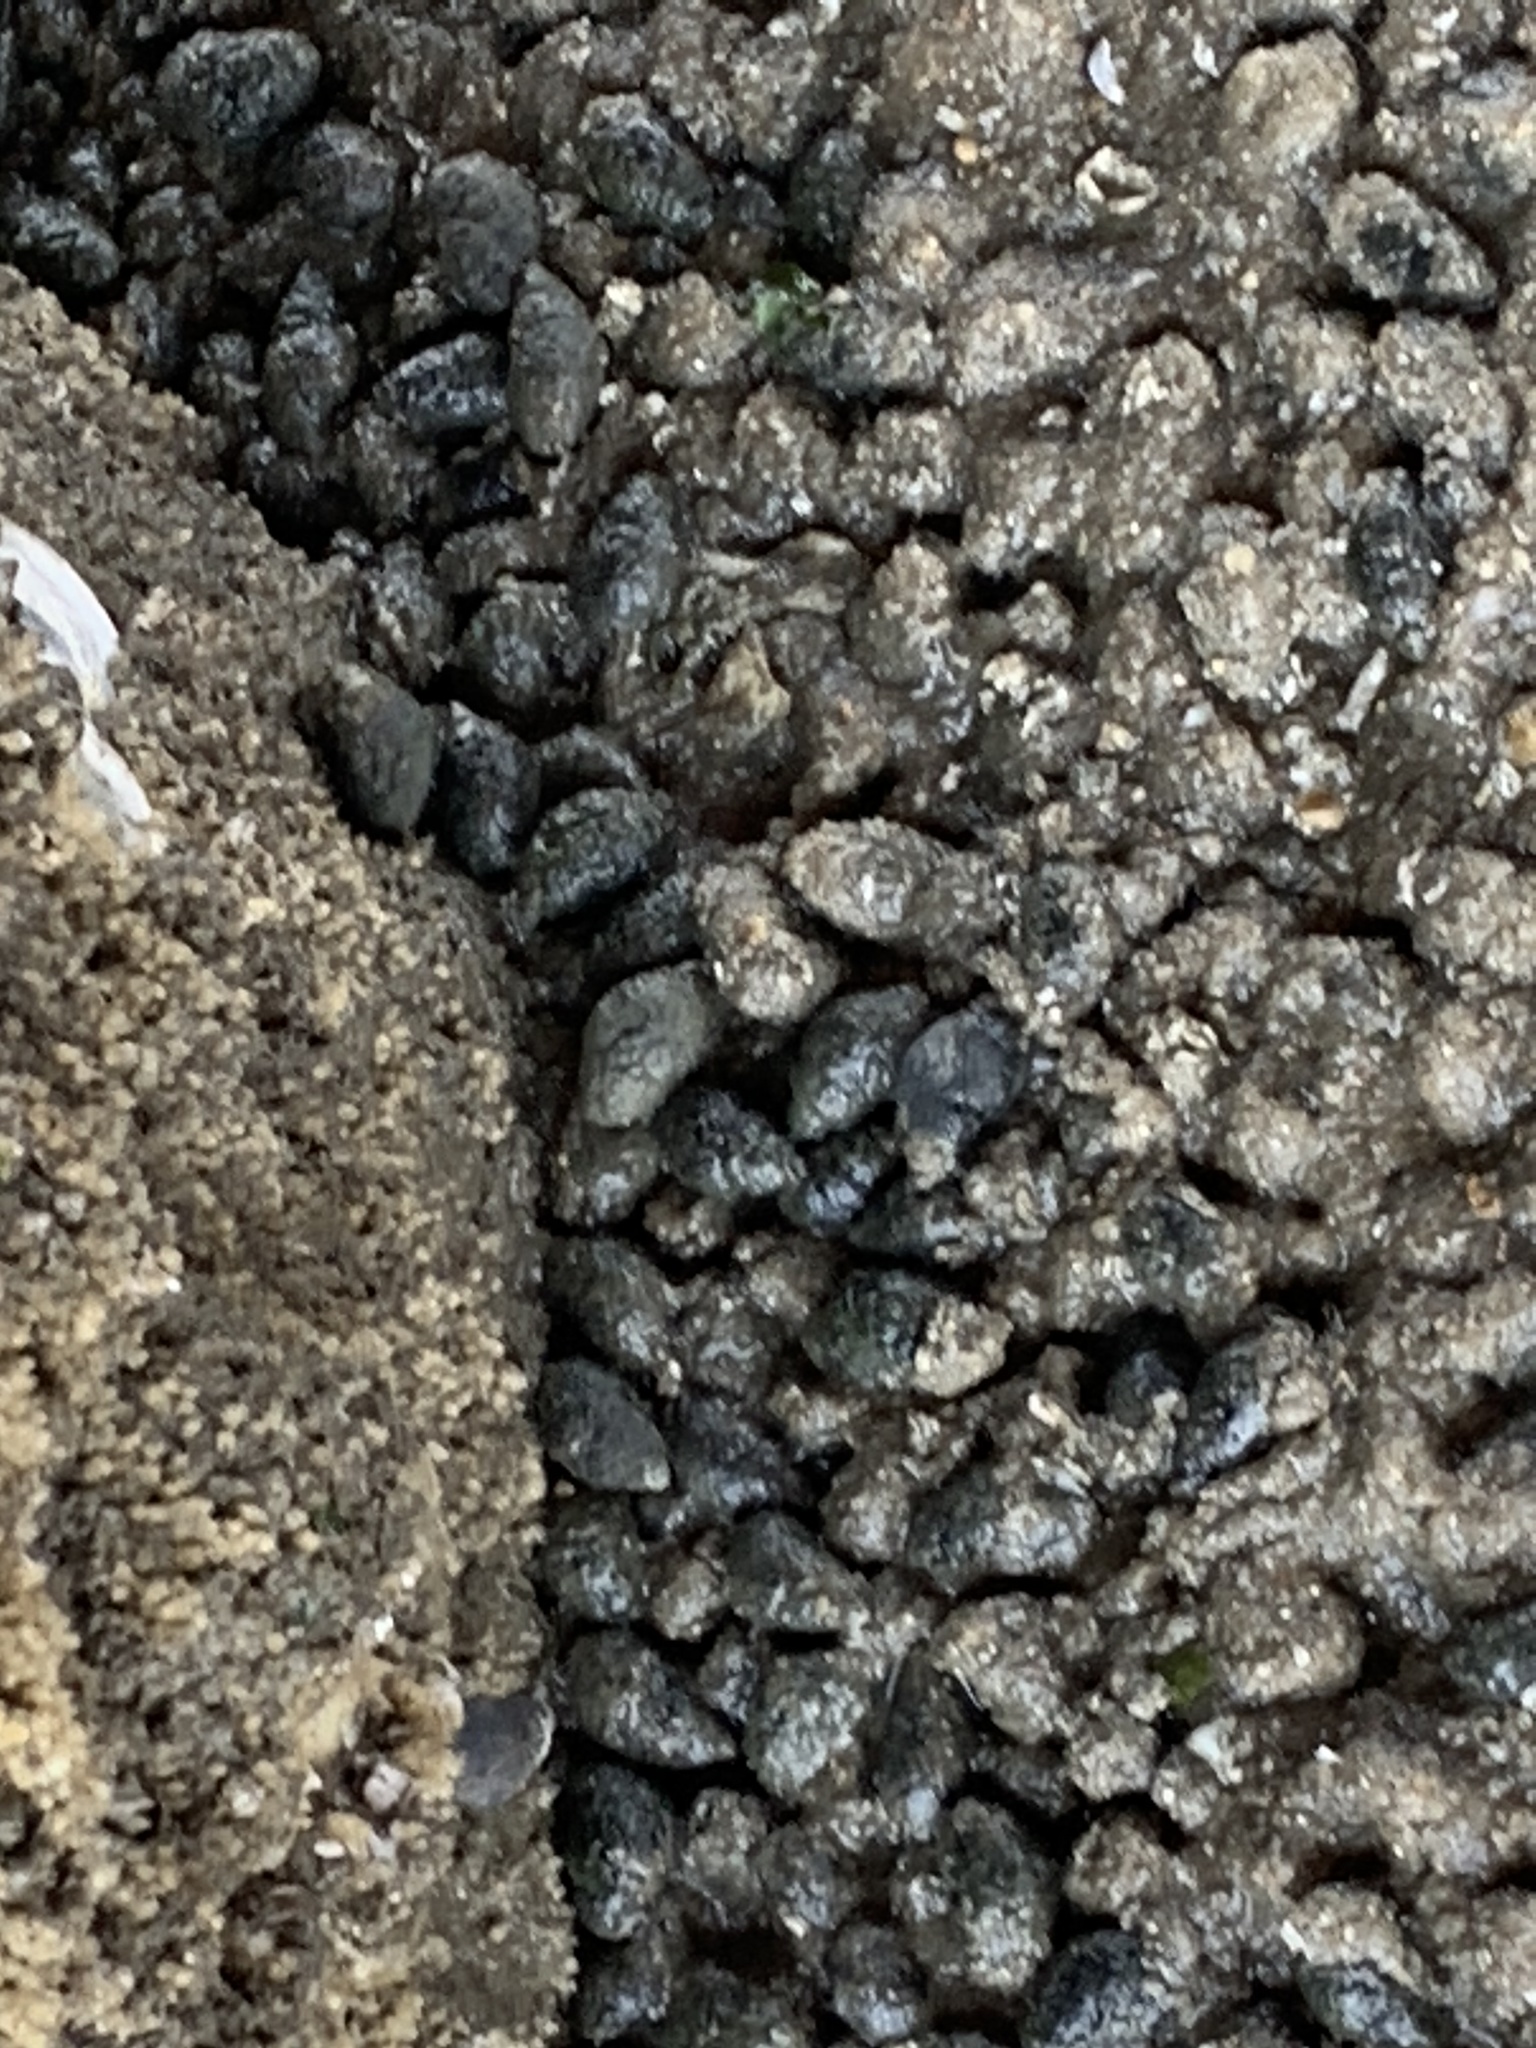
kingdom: Animalia
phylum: Mollusca
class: Gastropoda
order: Neogastropoda
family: Nassariidae
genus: Ilyanassa
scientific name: Ilyanassa obsoleta
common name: Eastern mudsnail
